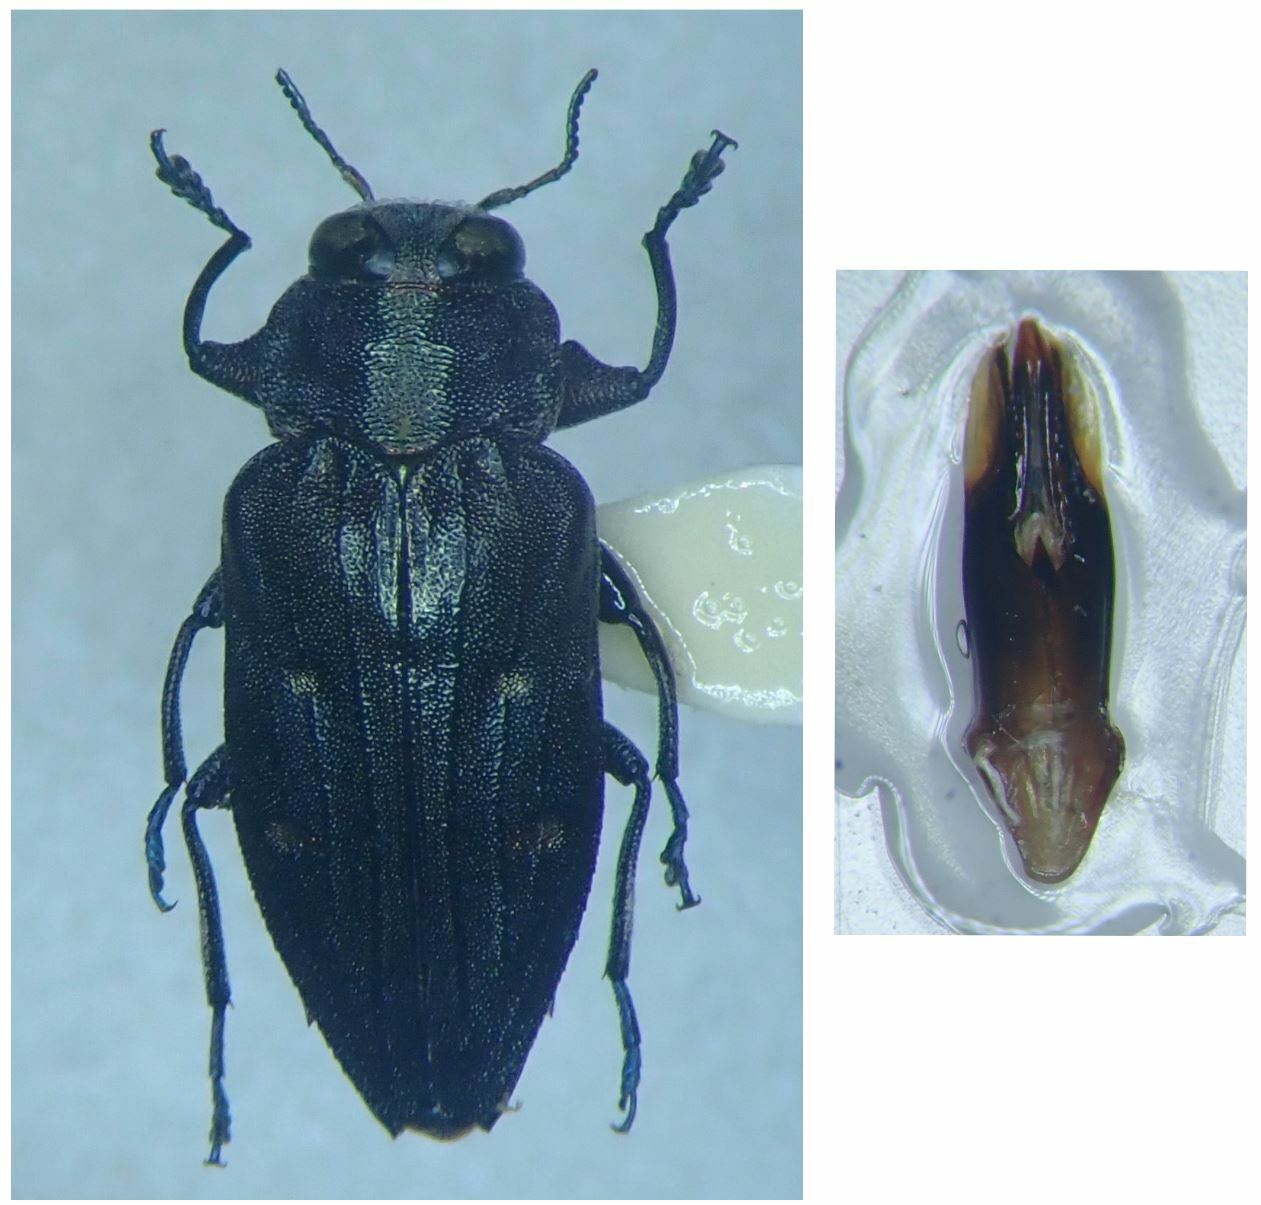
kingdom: Animalia
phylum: Arthropoda
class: Insecta
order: Coleoptera
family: Buprestidae
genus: Chrysobothris
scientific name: Chrysobothris affinis
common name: Beetle
